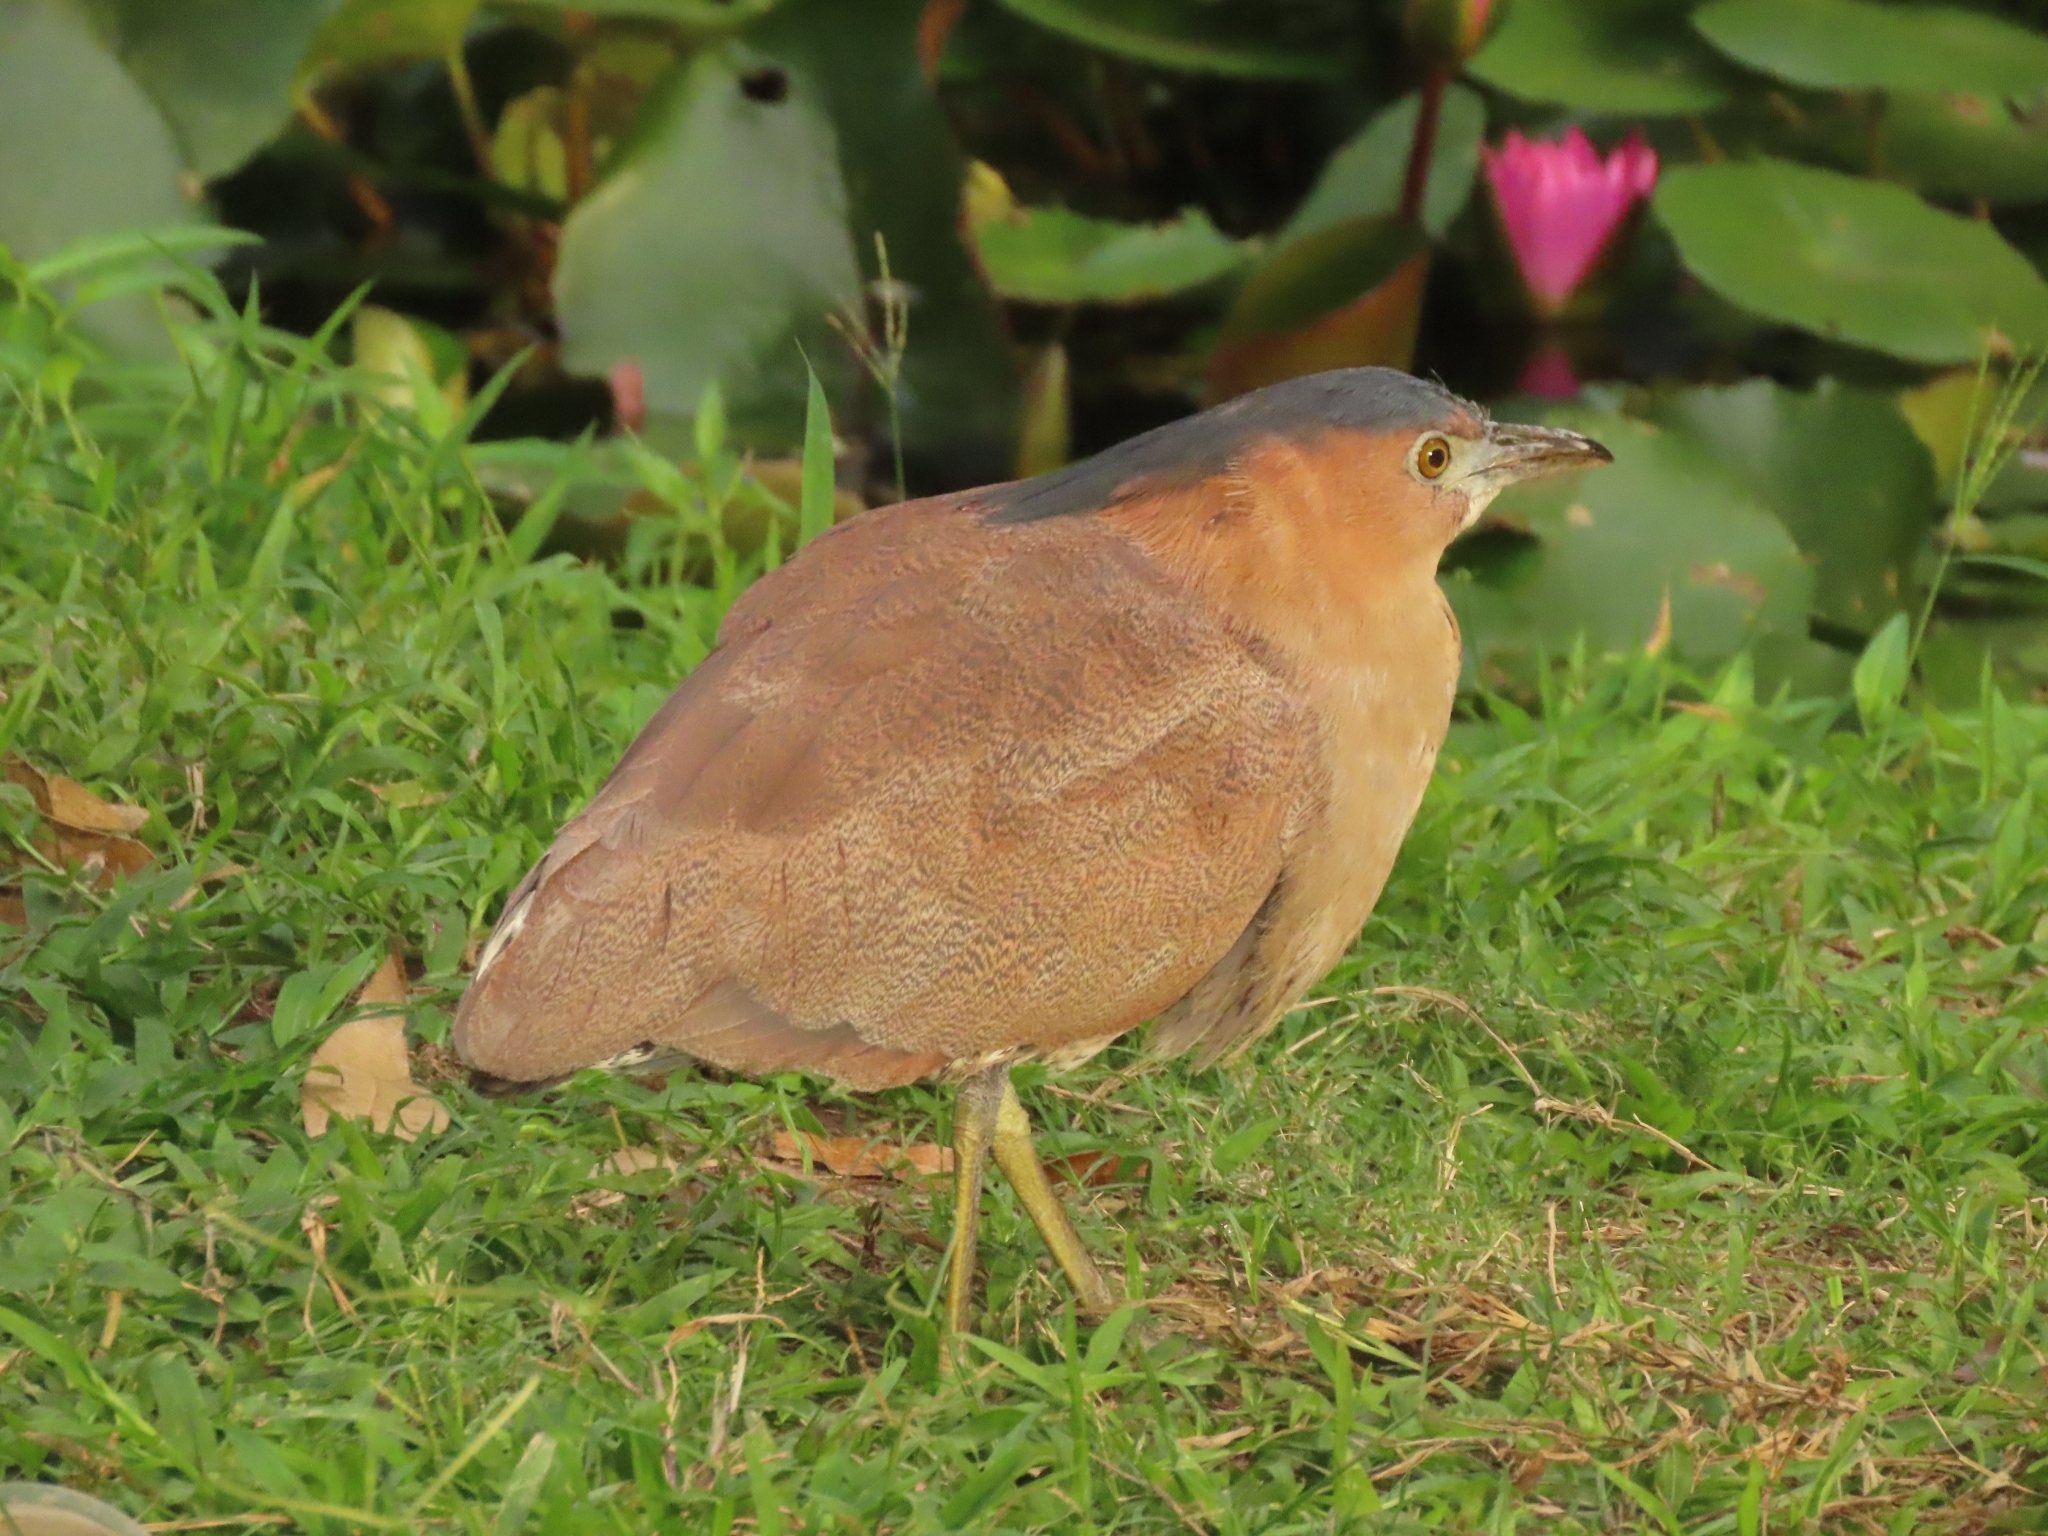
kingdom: Animalia
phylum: Chordata
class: Aves
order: Pelecaniformes
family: Ardeidae
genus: Gorsachius
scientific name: Gorsachius melanolophus
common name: Malayan night heron
